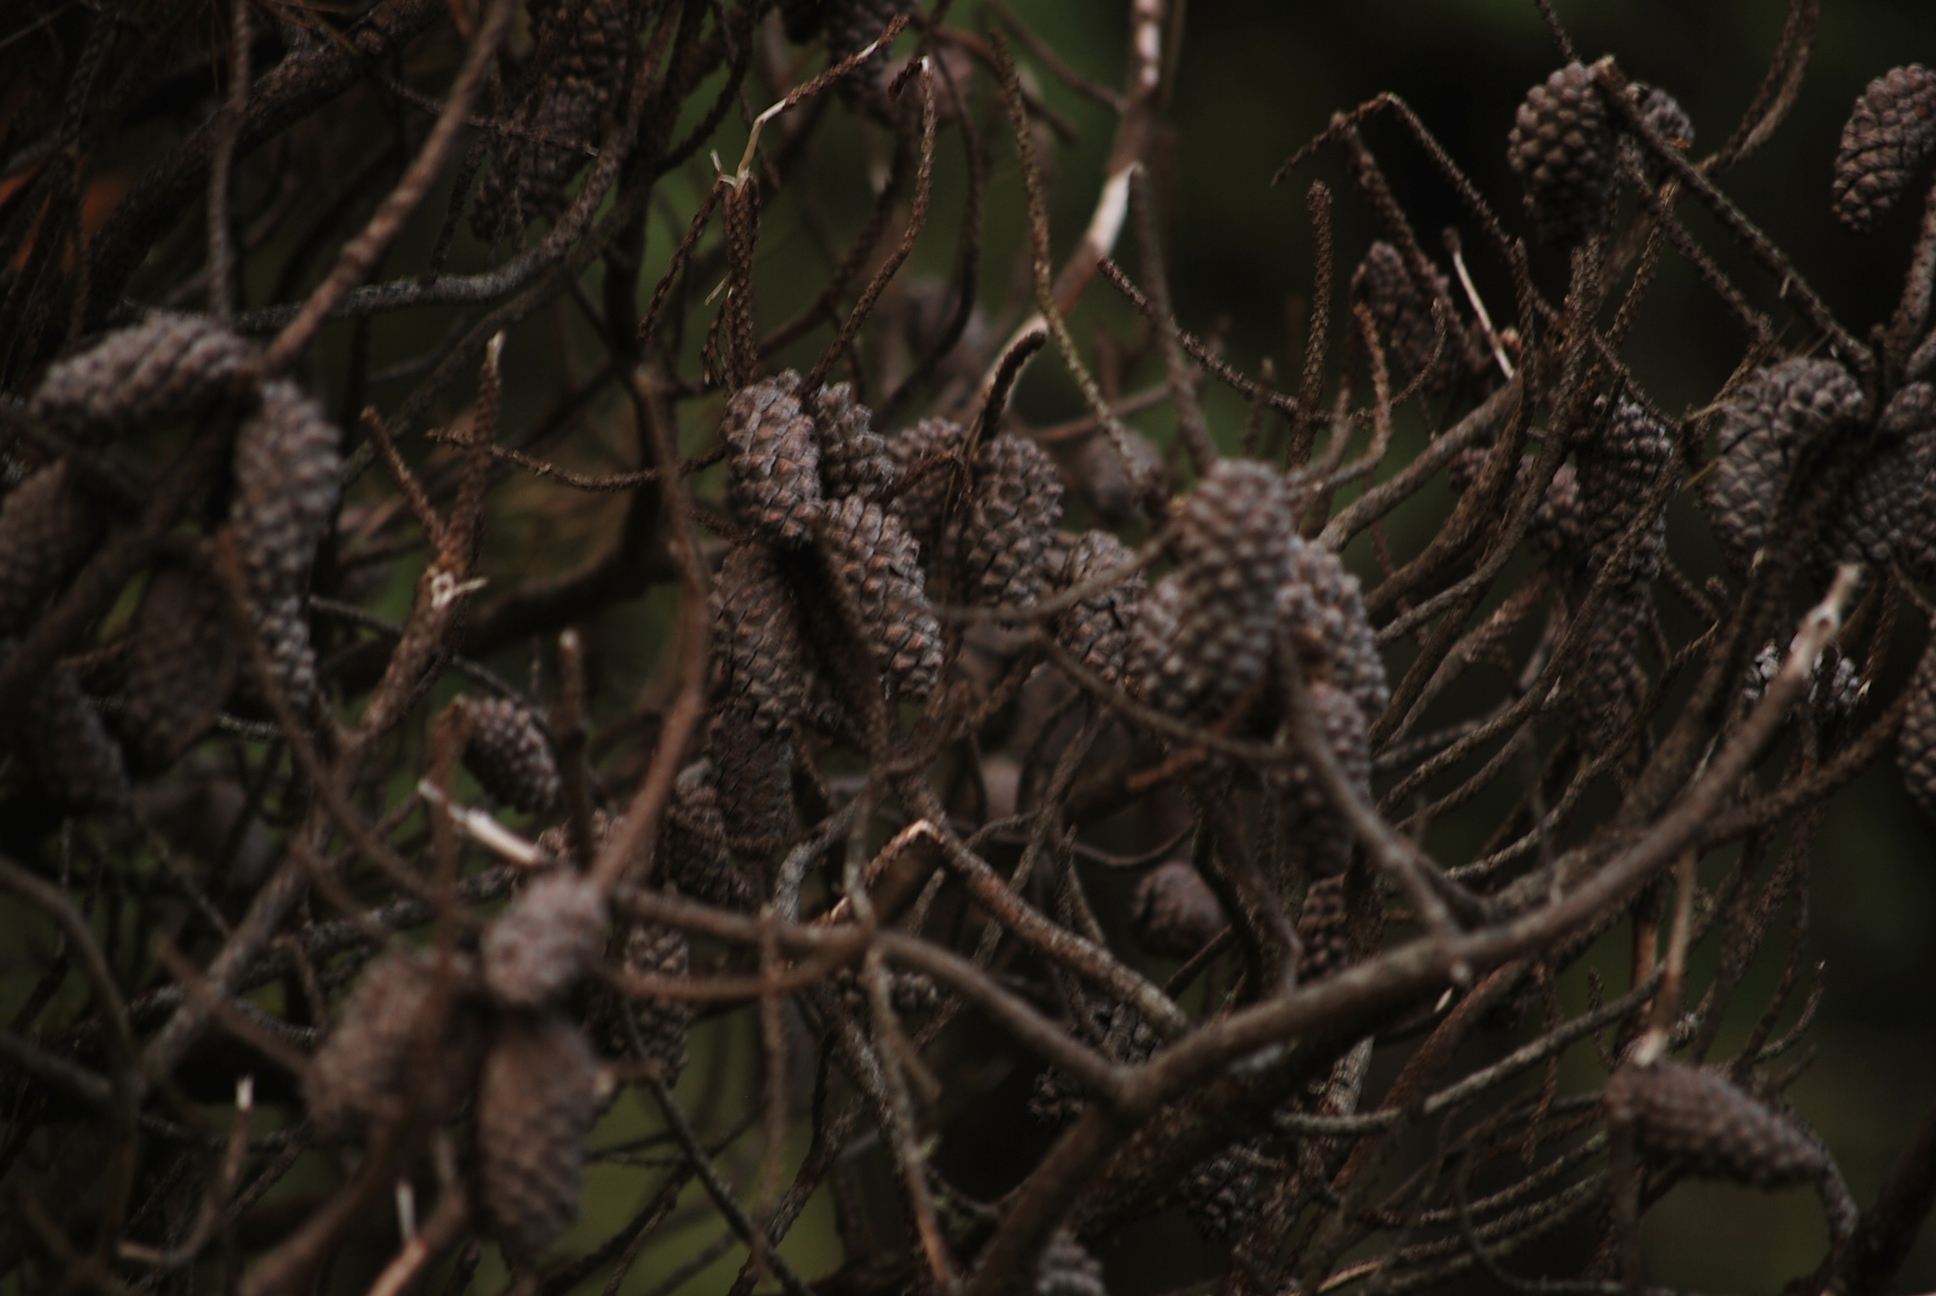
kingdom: Plantae
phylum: Tracheophyta
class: Pinopsida
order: Pinales
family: Pinaceae
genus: Pinus
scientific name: Pinus contorta
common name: Lodgepole pine
